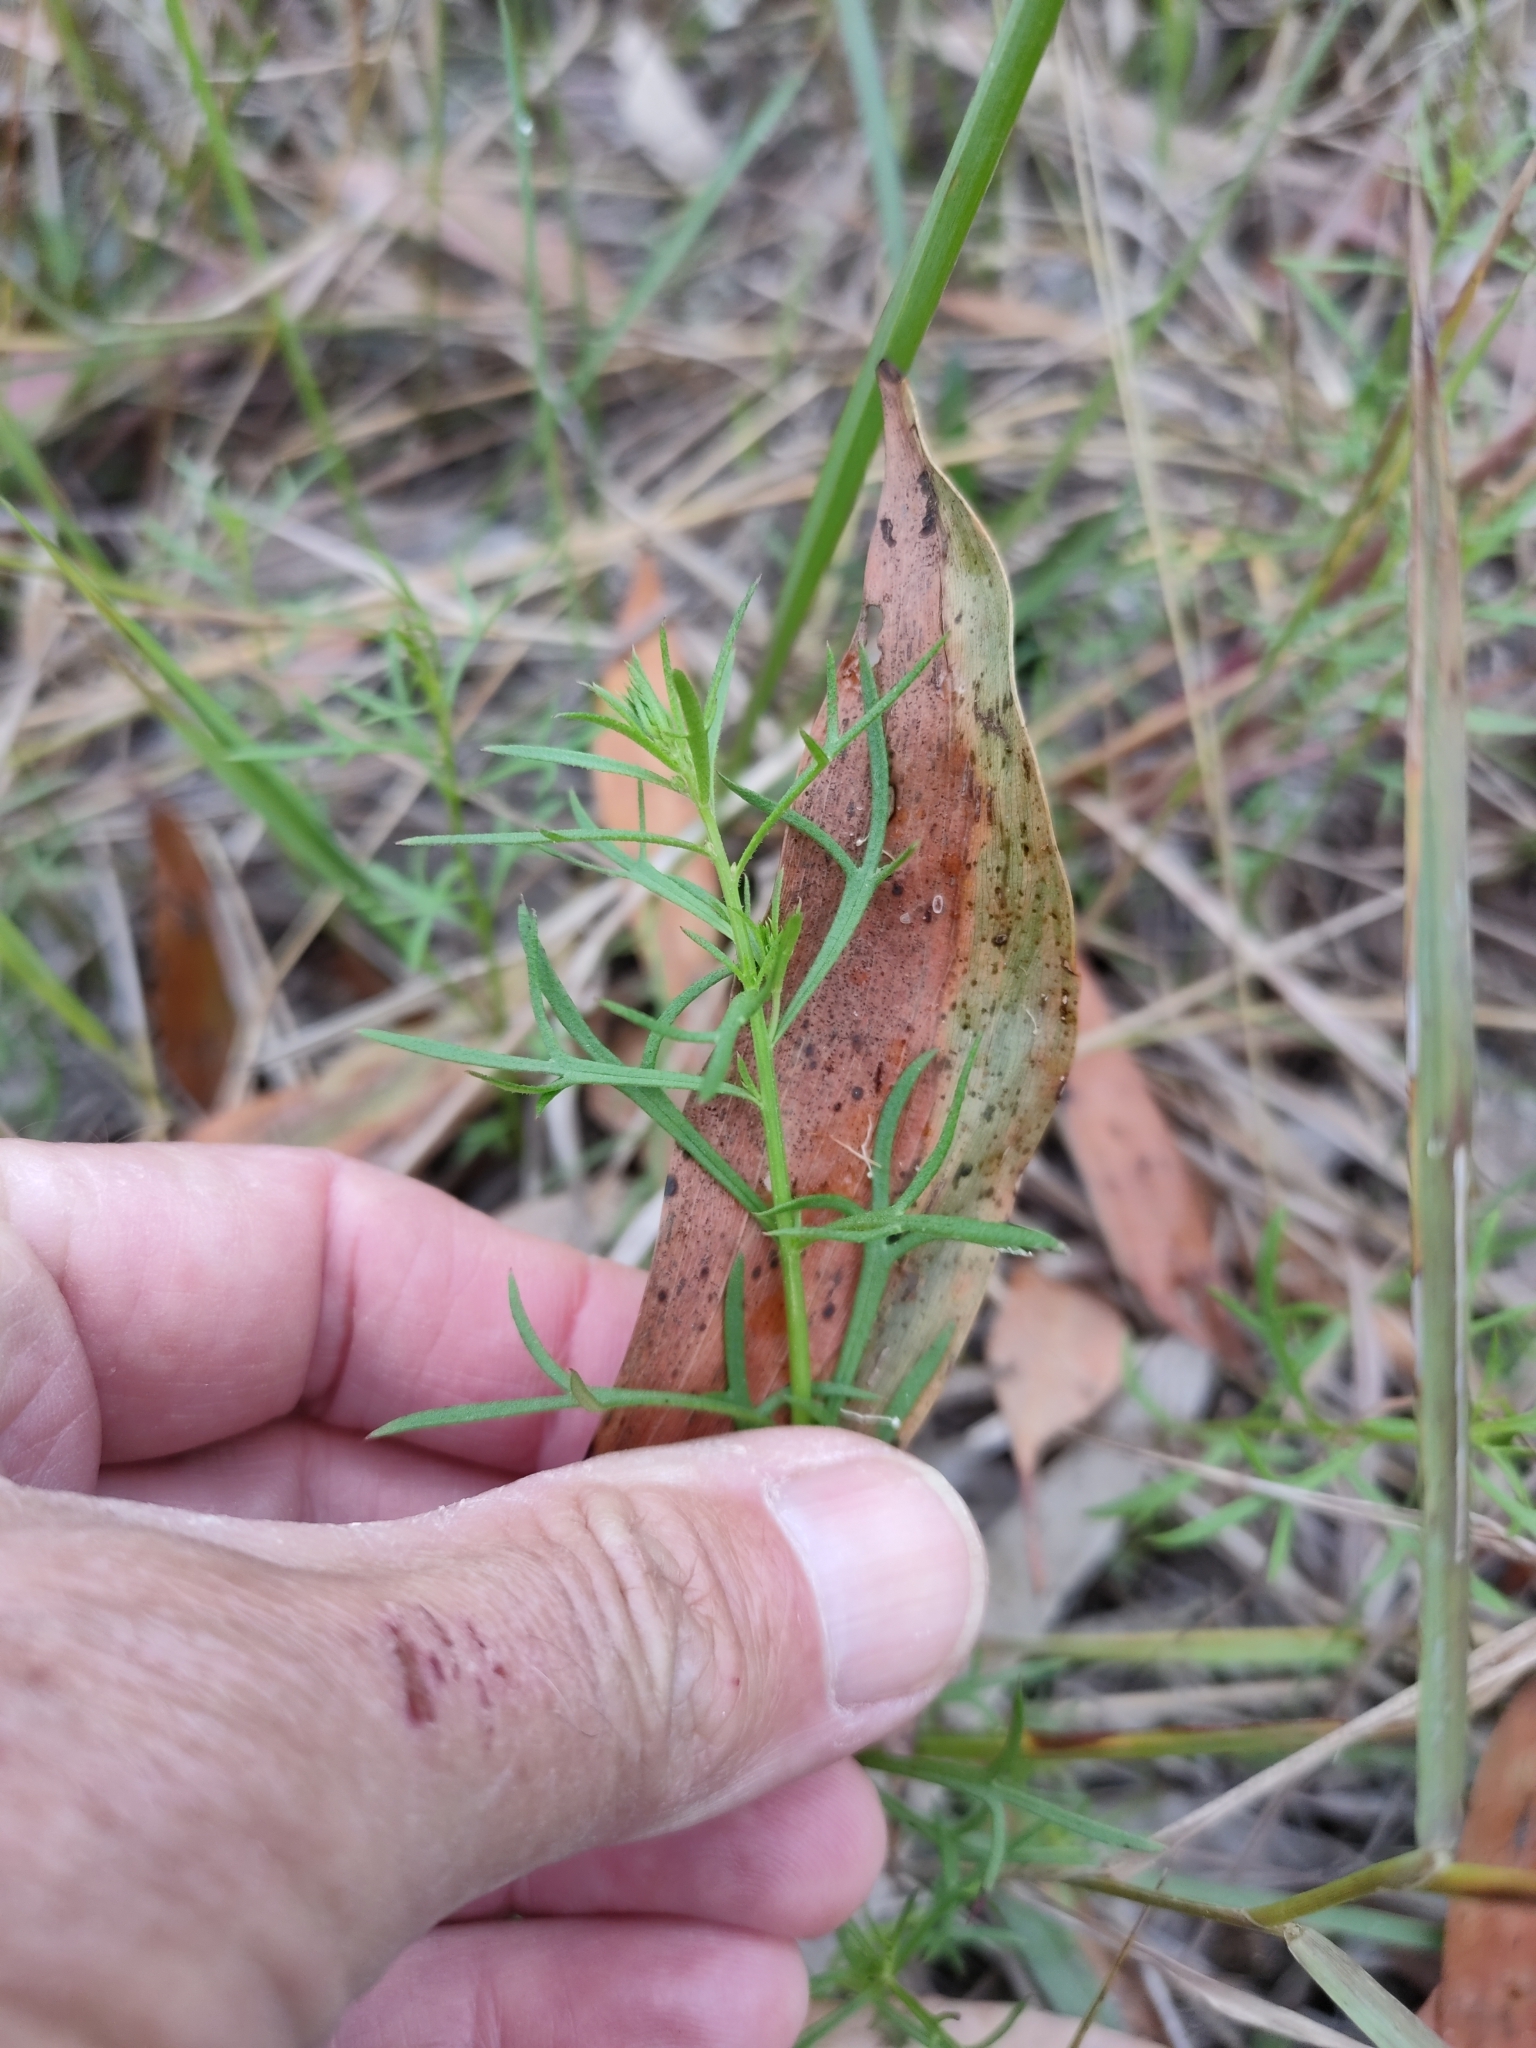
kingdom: Plantae
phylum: Tracheophyta
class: Magnoliopsida
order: Saxifragales
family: Haloragaceae
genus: Haloragis
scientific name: Haloragis heterophylla
